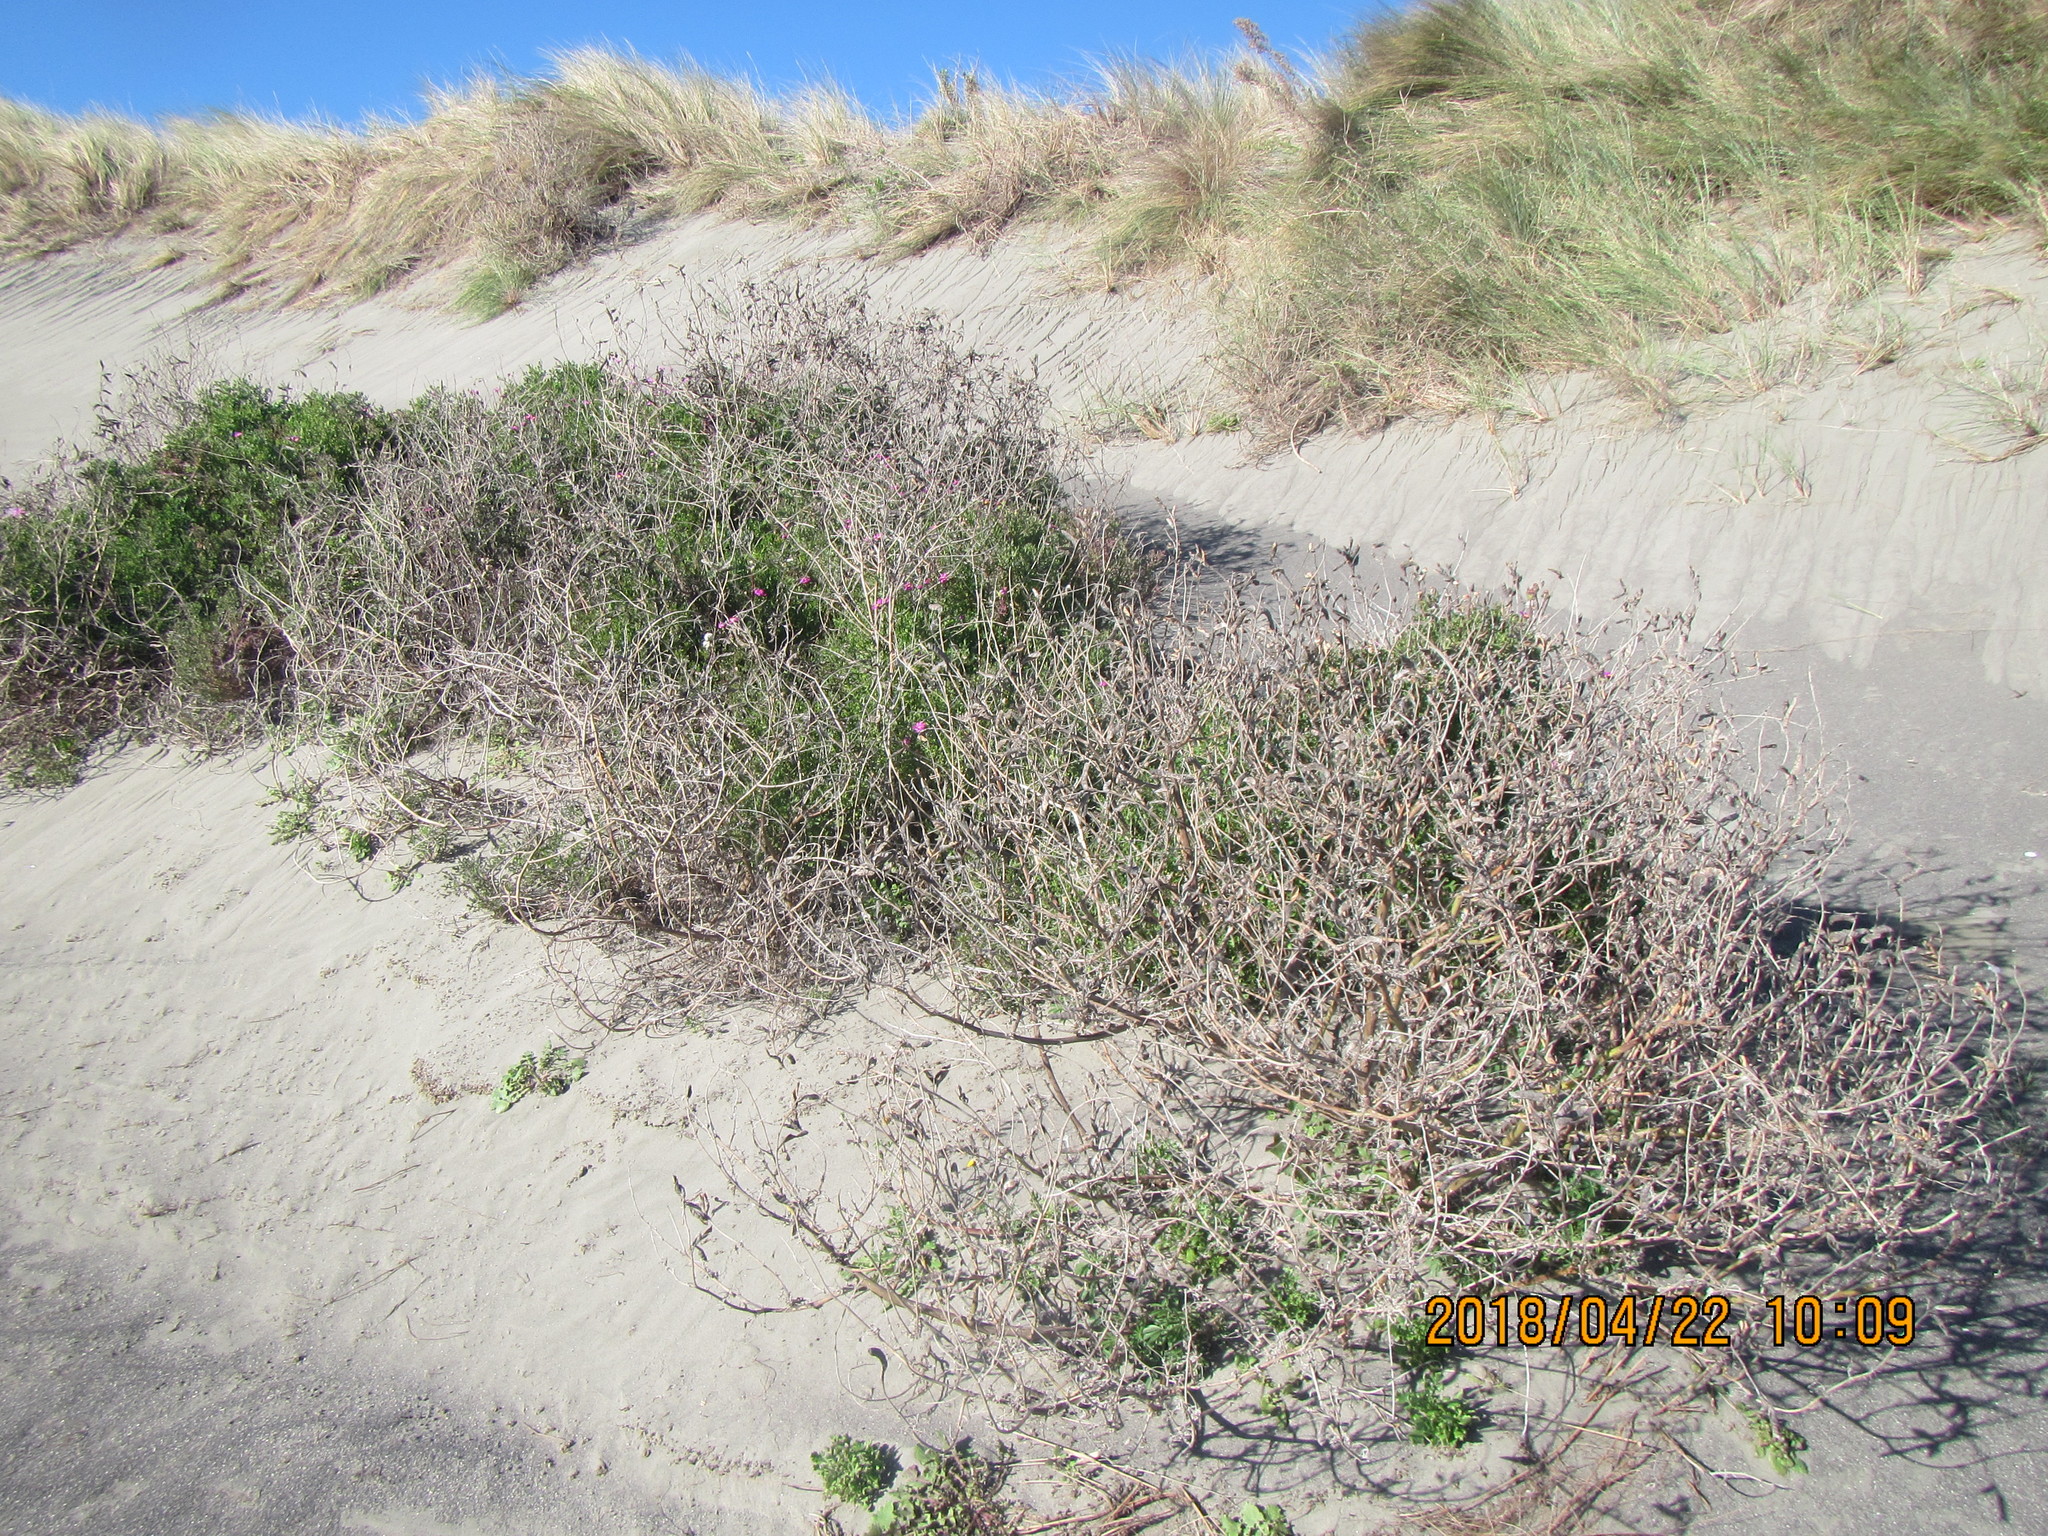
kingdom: Plantae
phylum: Tracheophyta
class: Magnoliopsida
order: Fabales
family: Fabaceae
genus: Lupinus
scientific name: Lupinus arboreus
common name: Yellow bush lupine
